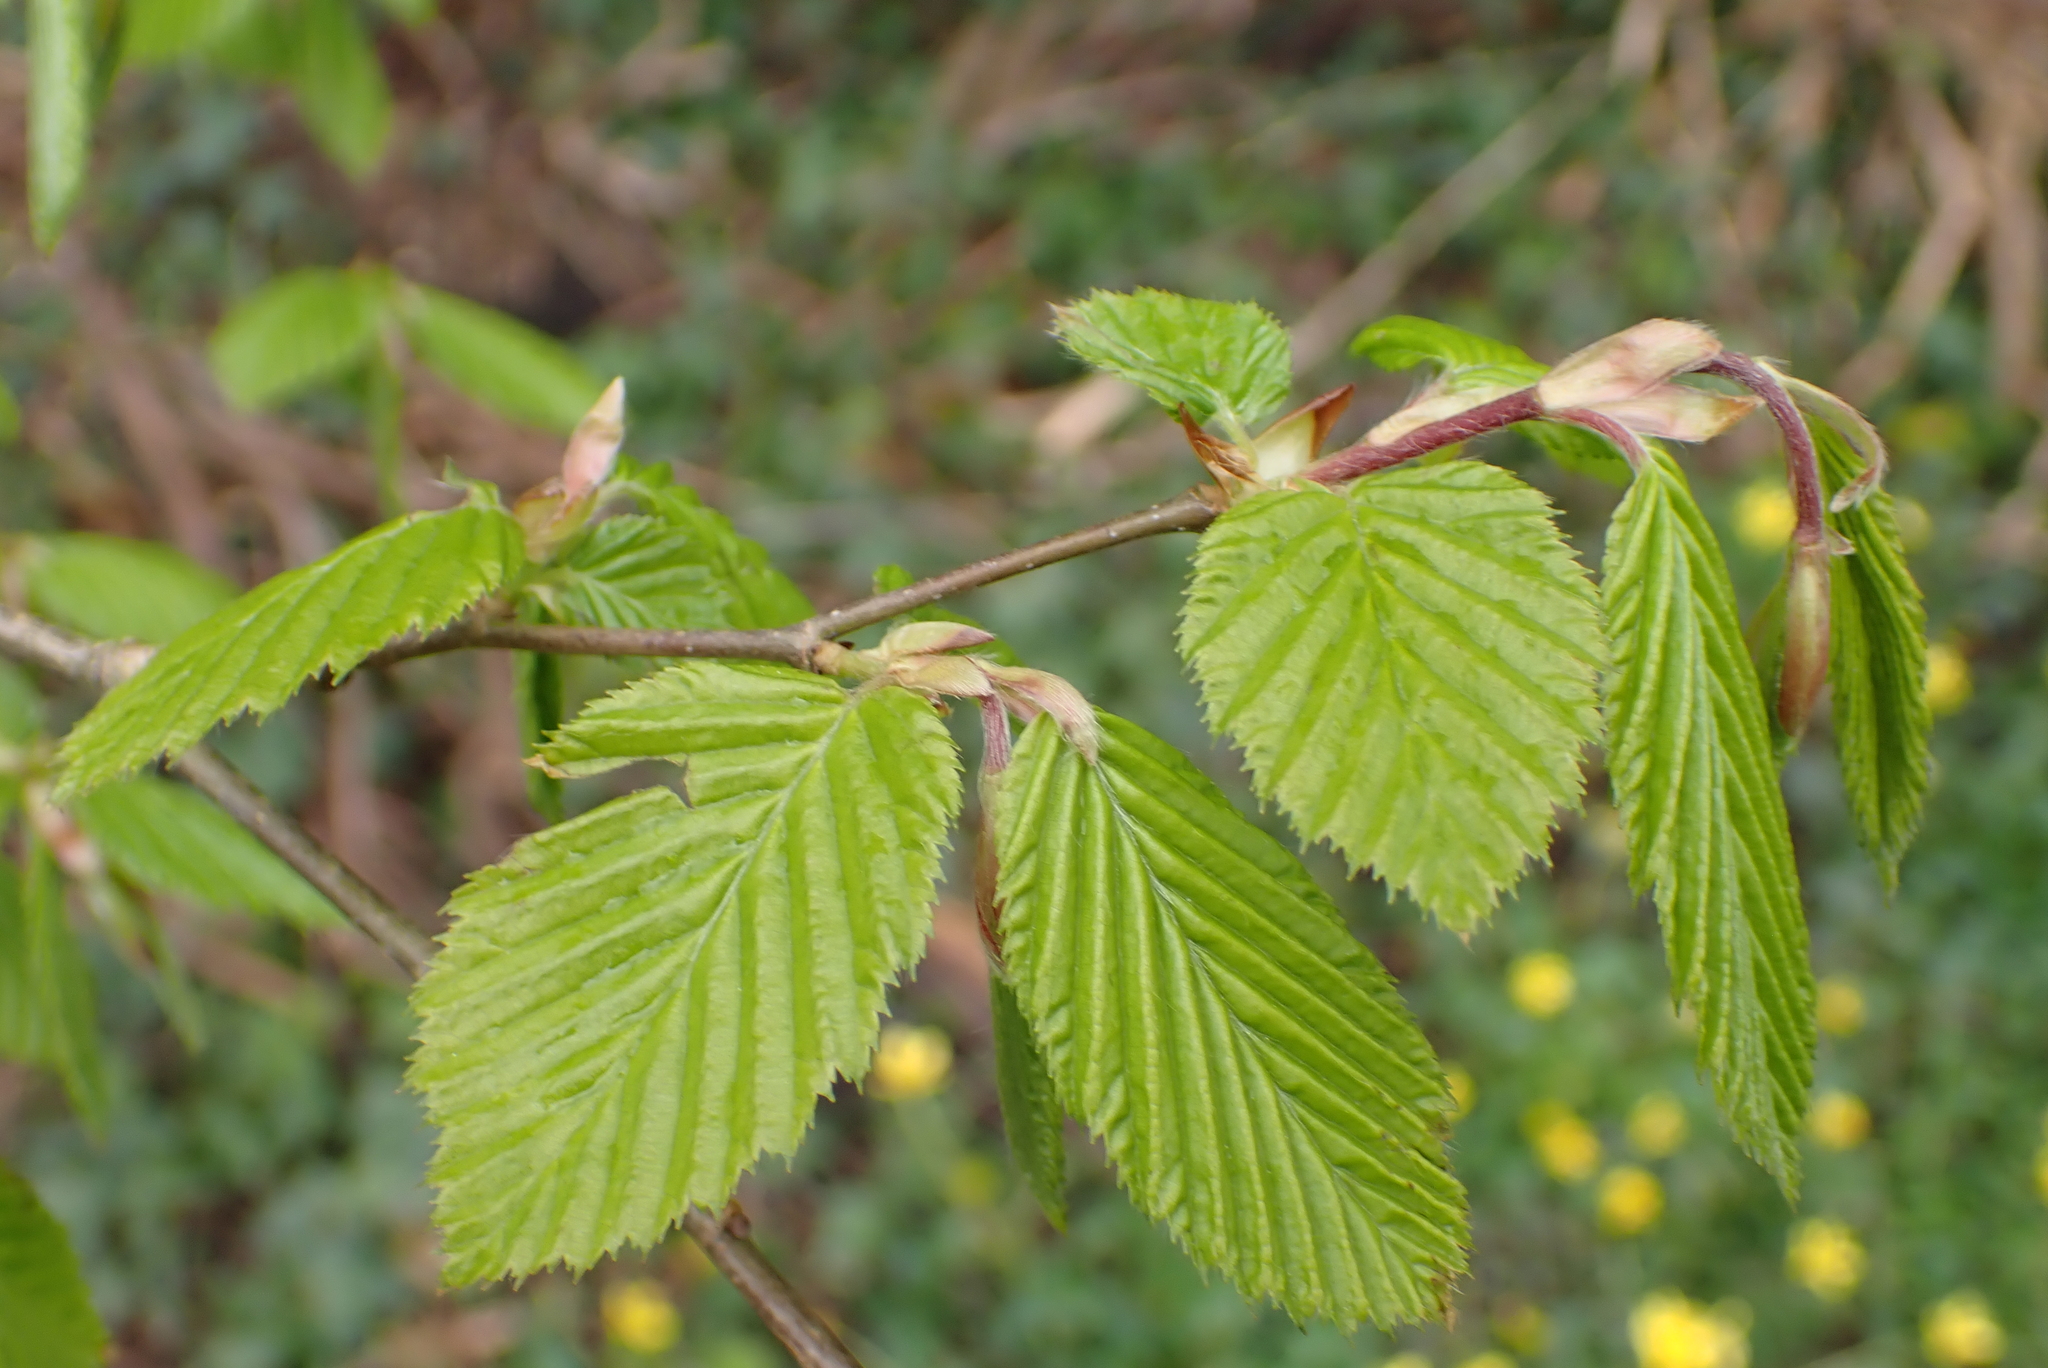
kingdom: Plantae
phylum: Tracheophyta
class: Magnoliopsida
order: Fagales
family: Betulaceae
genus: Carpinus
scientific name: Carpinus betulus
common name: Hornbeam
